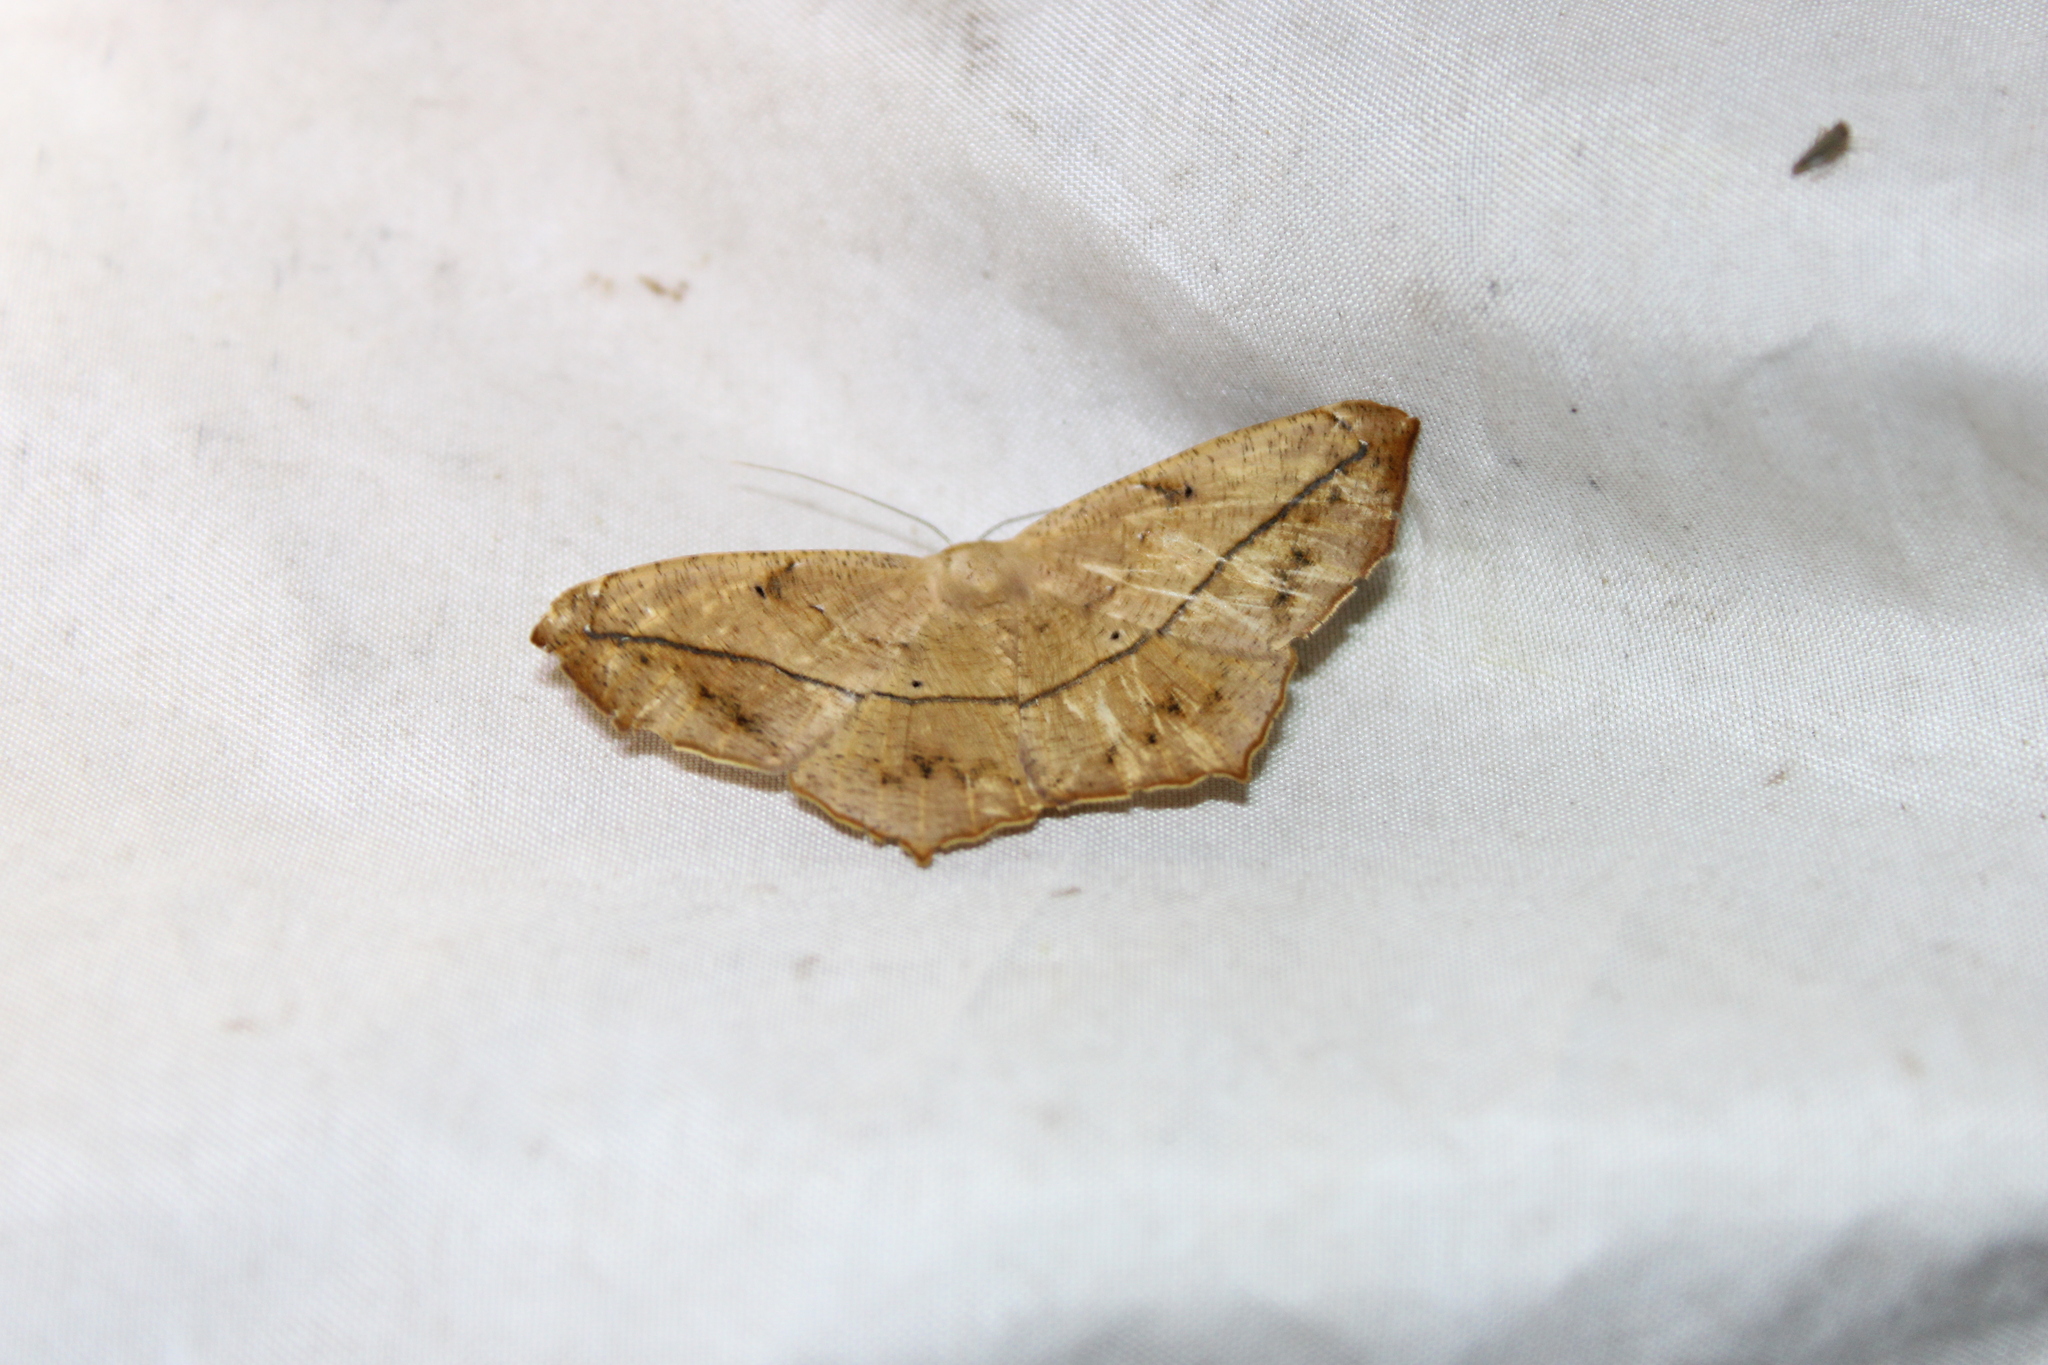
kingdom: Animalia
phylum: Arthropoda
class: Insecta
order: Lepidoptera
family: Geometridae
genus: Prochoerodes
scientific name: Prochoerodes lineola
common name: Large maple spanworm
